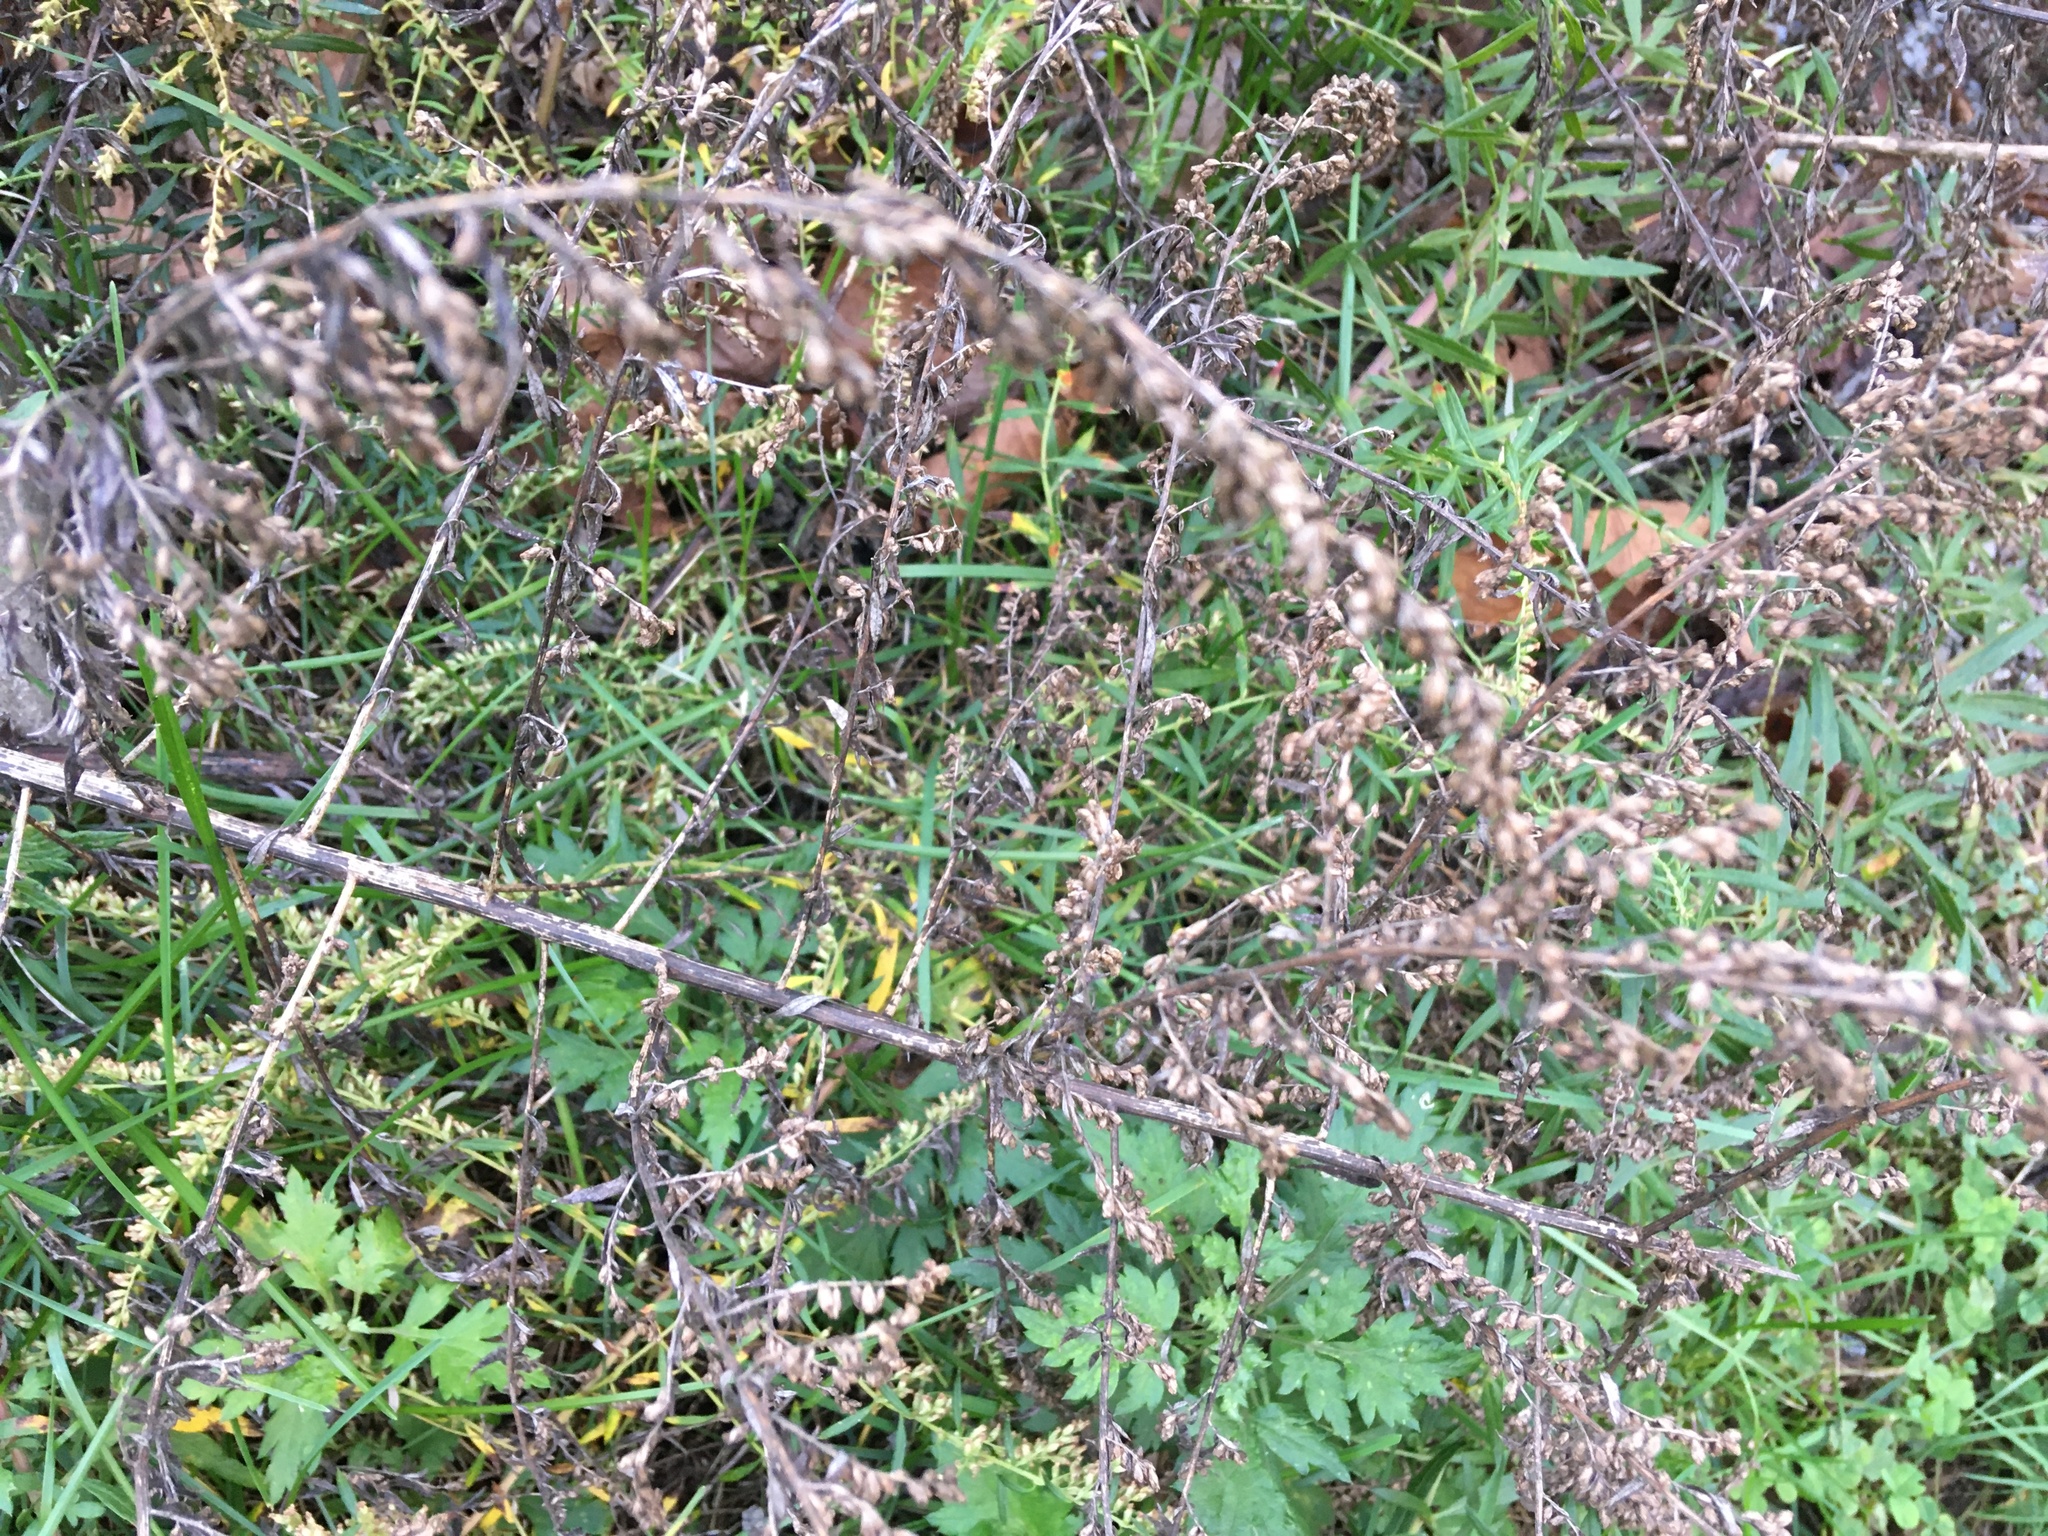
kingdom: Plantae
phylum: Tracheophyta
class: Magnoliopsida
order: Asterales
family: Asteraceae
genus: Artemisia
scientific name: Artemisia vulgaris
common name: Mugwort
